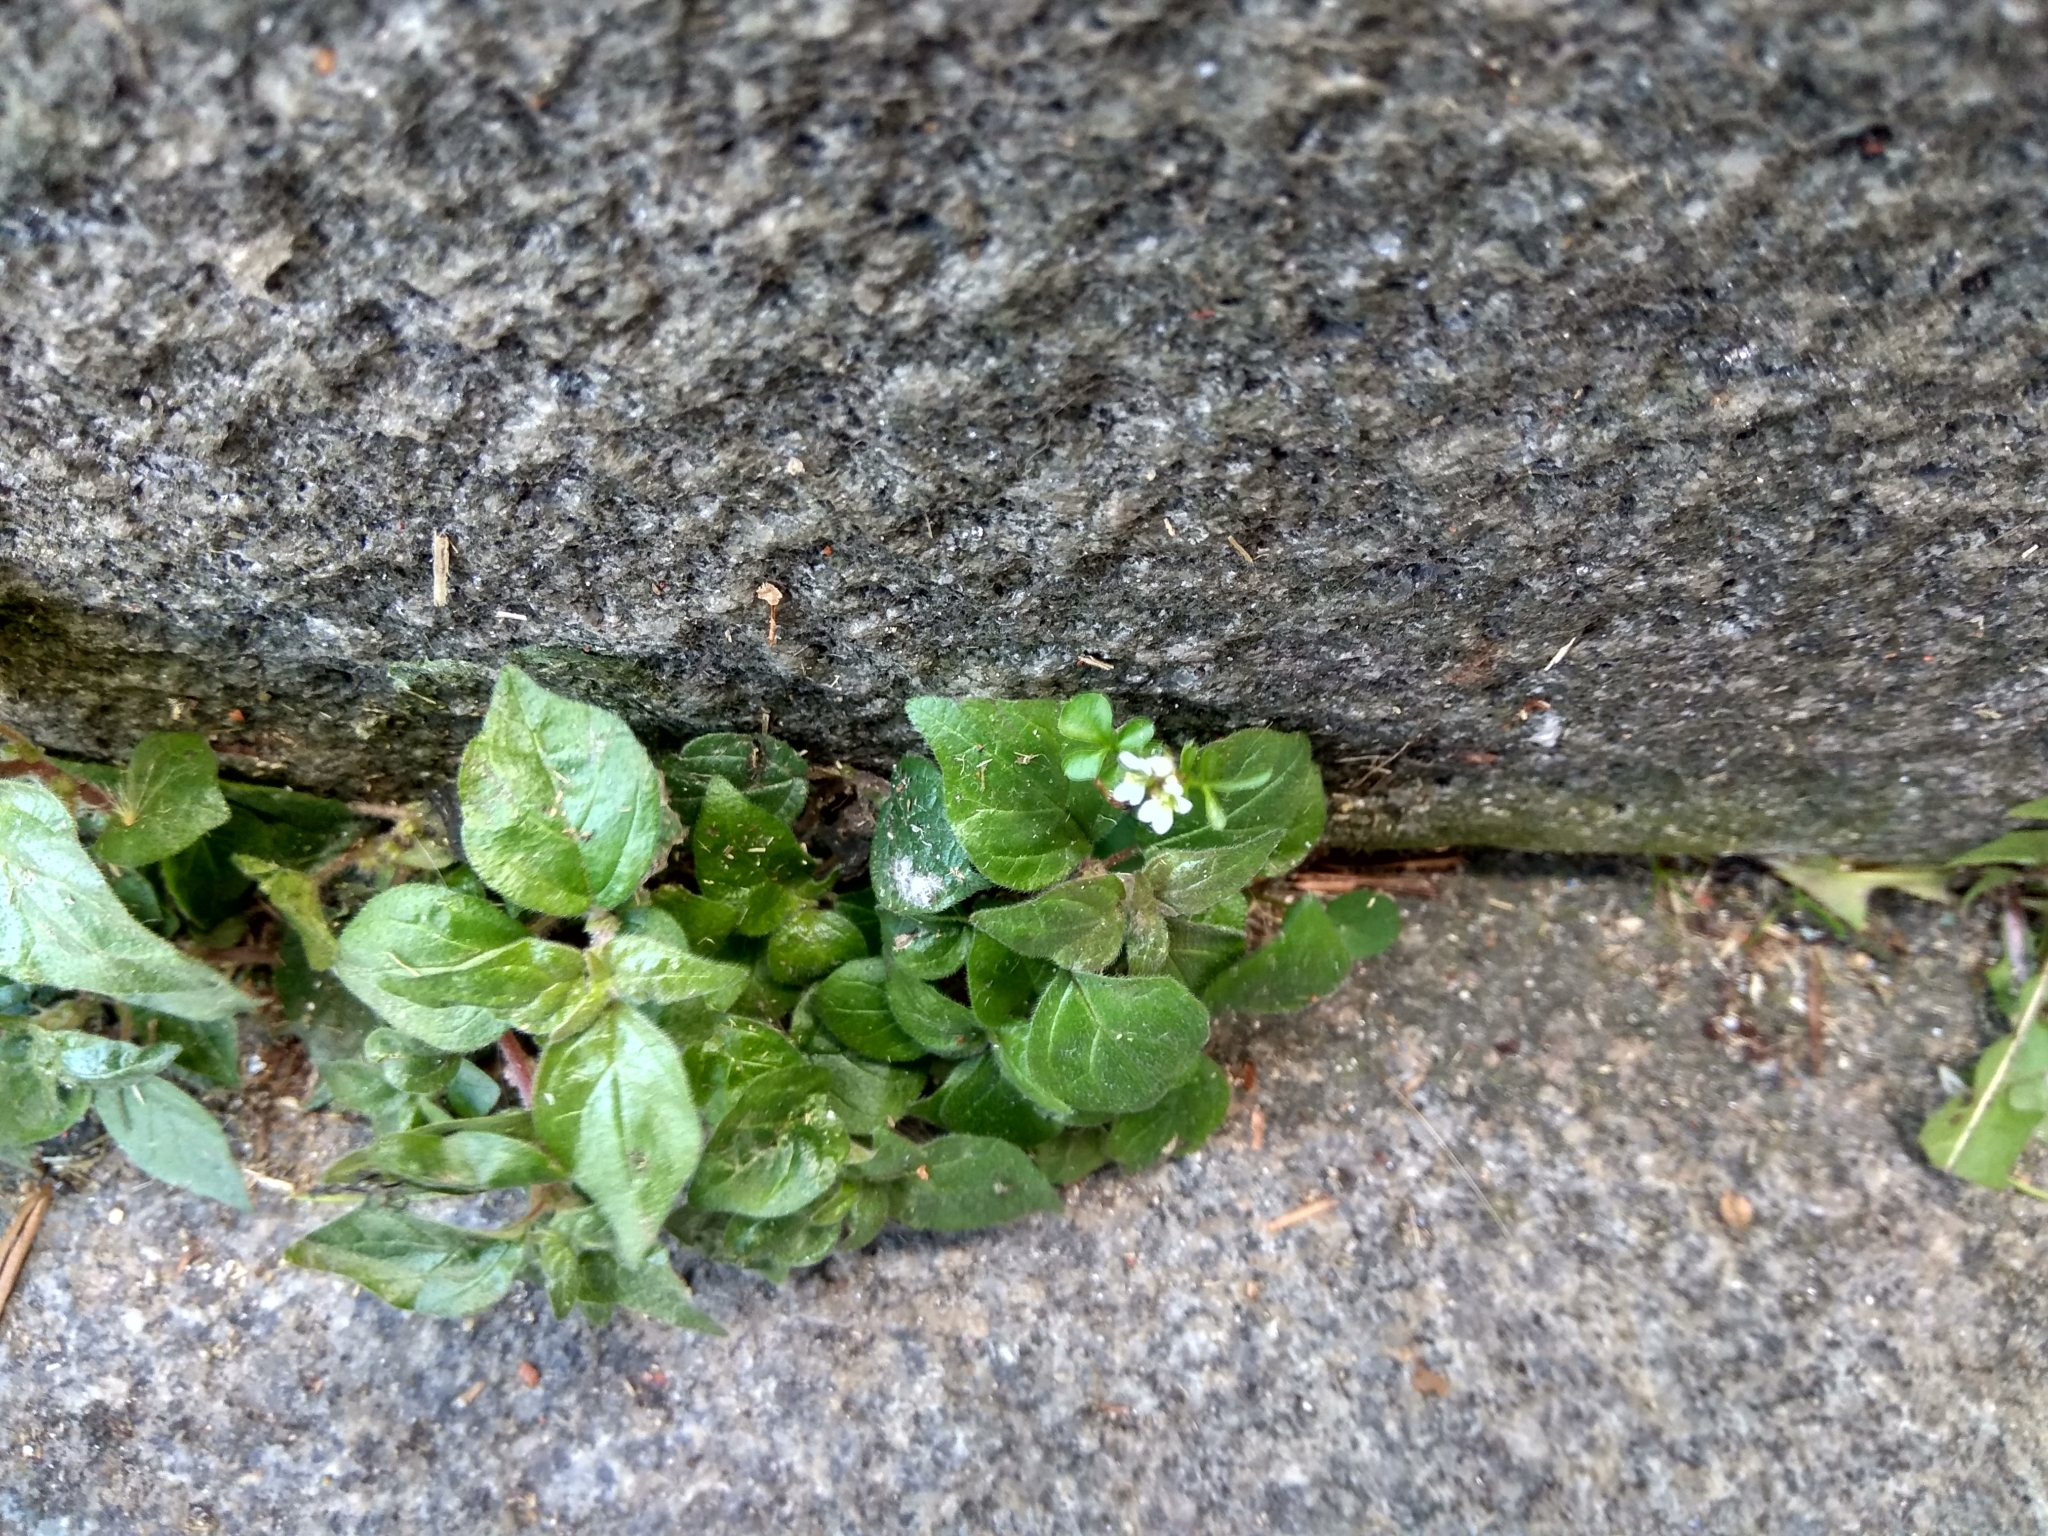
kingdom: Plantae
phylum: Tracheophyta
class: Magnoliopsida
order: Brassicales
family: Brassicaceae
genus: Cardamine
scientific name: Cardamine flexuosa
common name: Woodland bittercress
